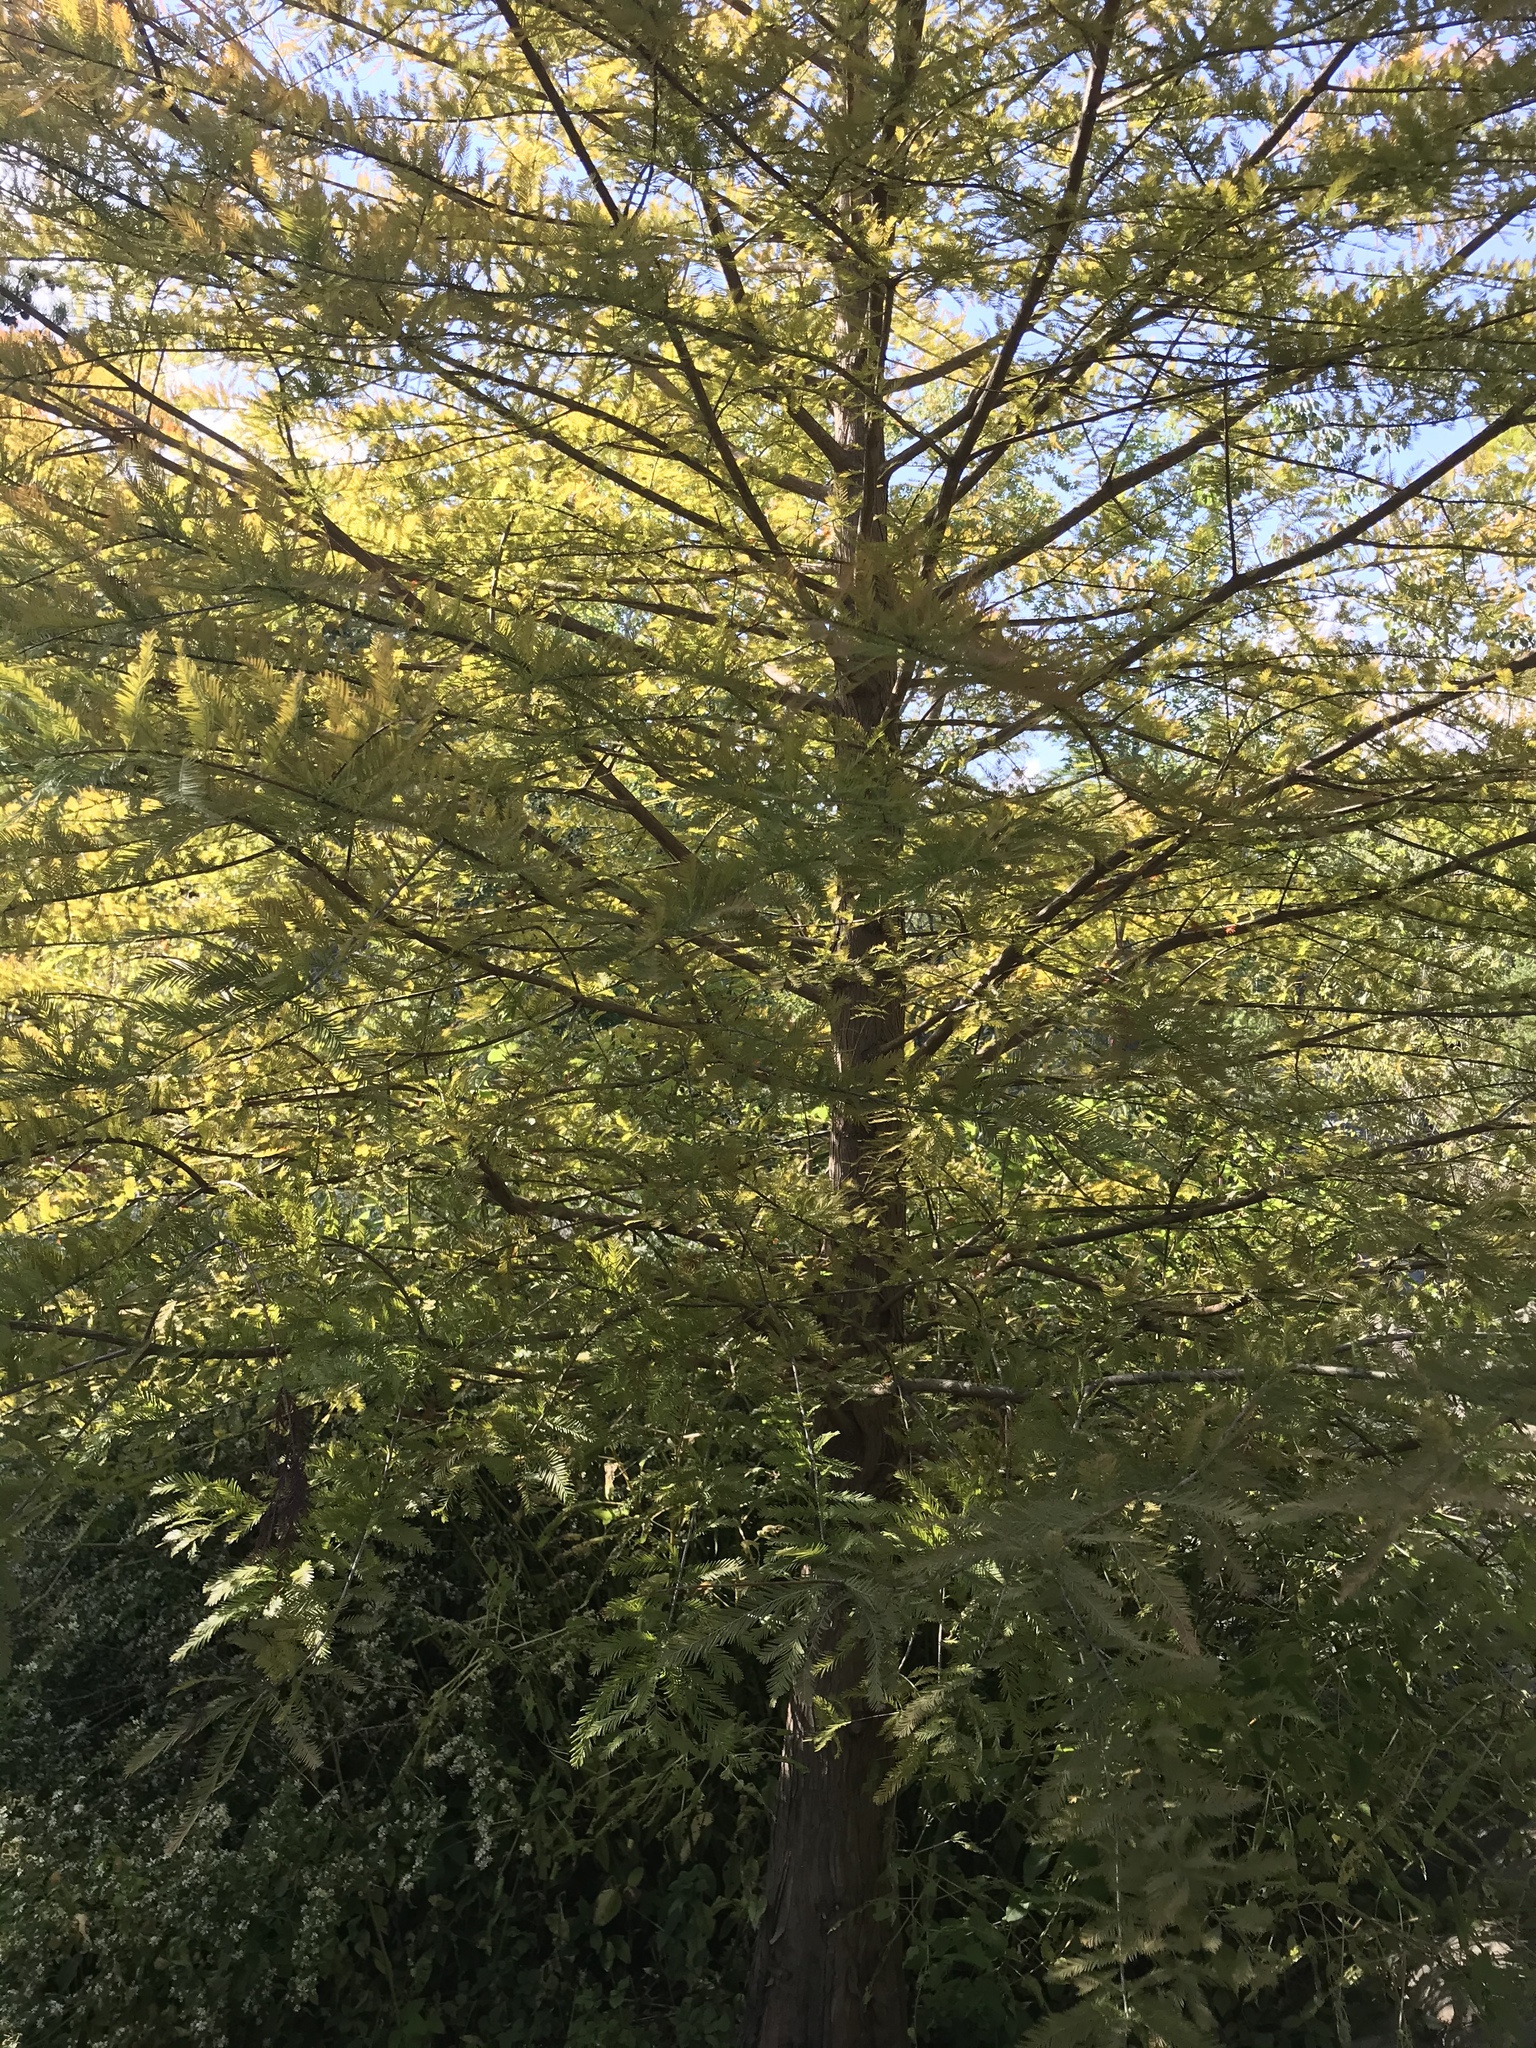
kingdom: Plantae
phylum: Tracheophyta
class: Pinopsida
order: Pinales
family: Cupressaceae
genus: Taxodium
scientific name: Taxodium distichum
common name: Bald cypress
